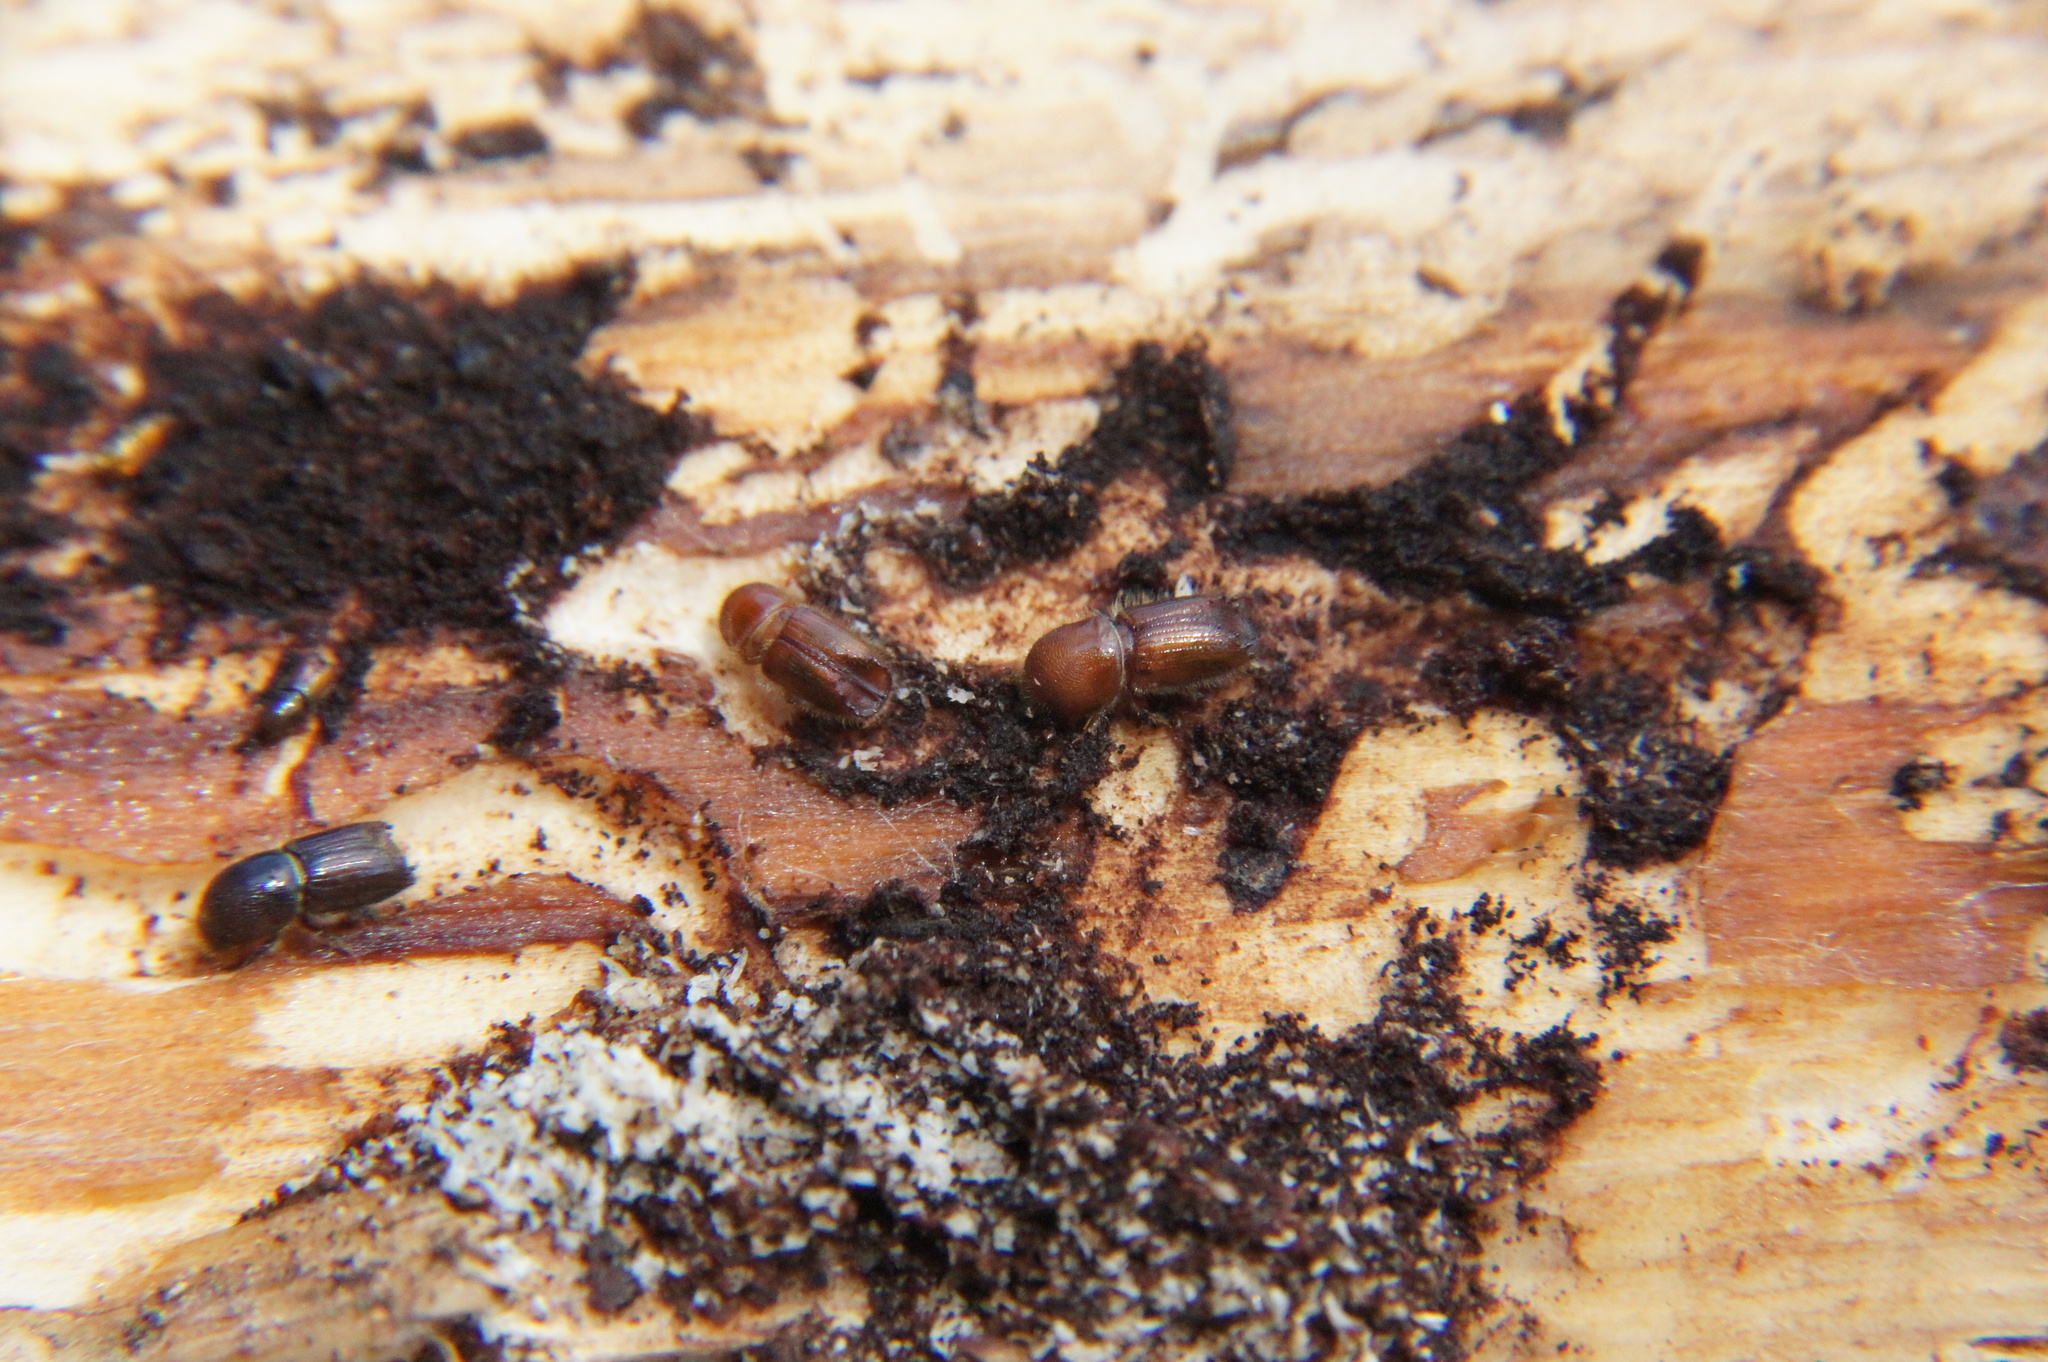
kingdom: Animalia
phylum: Arthropoda
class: Insecta
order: Coleoptera
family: Curculionidae
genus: Ips
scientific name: Ips typographus
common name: Eight-toothed spruce bark beetle
